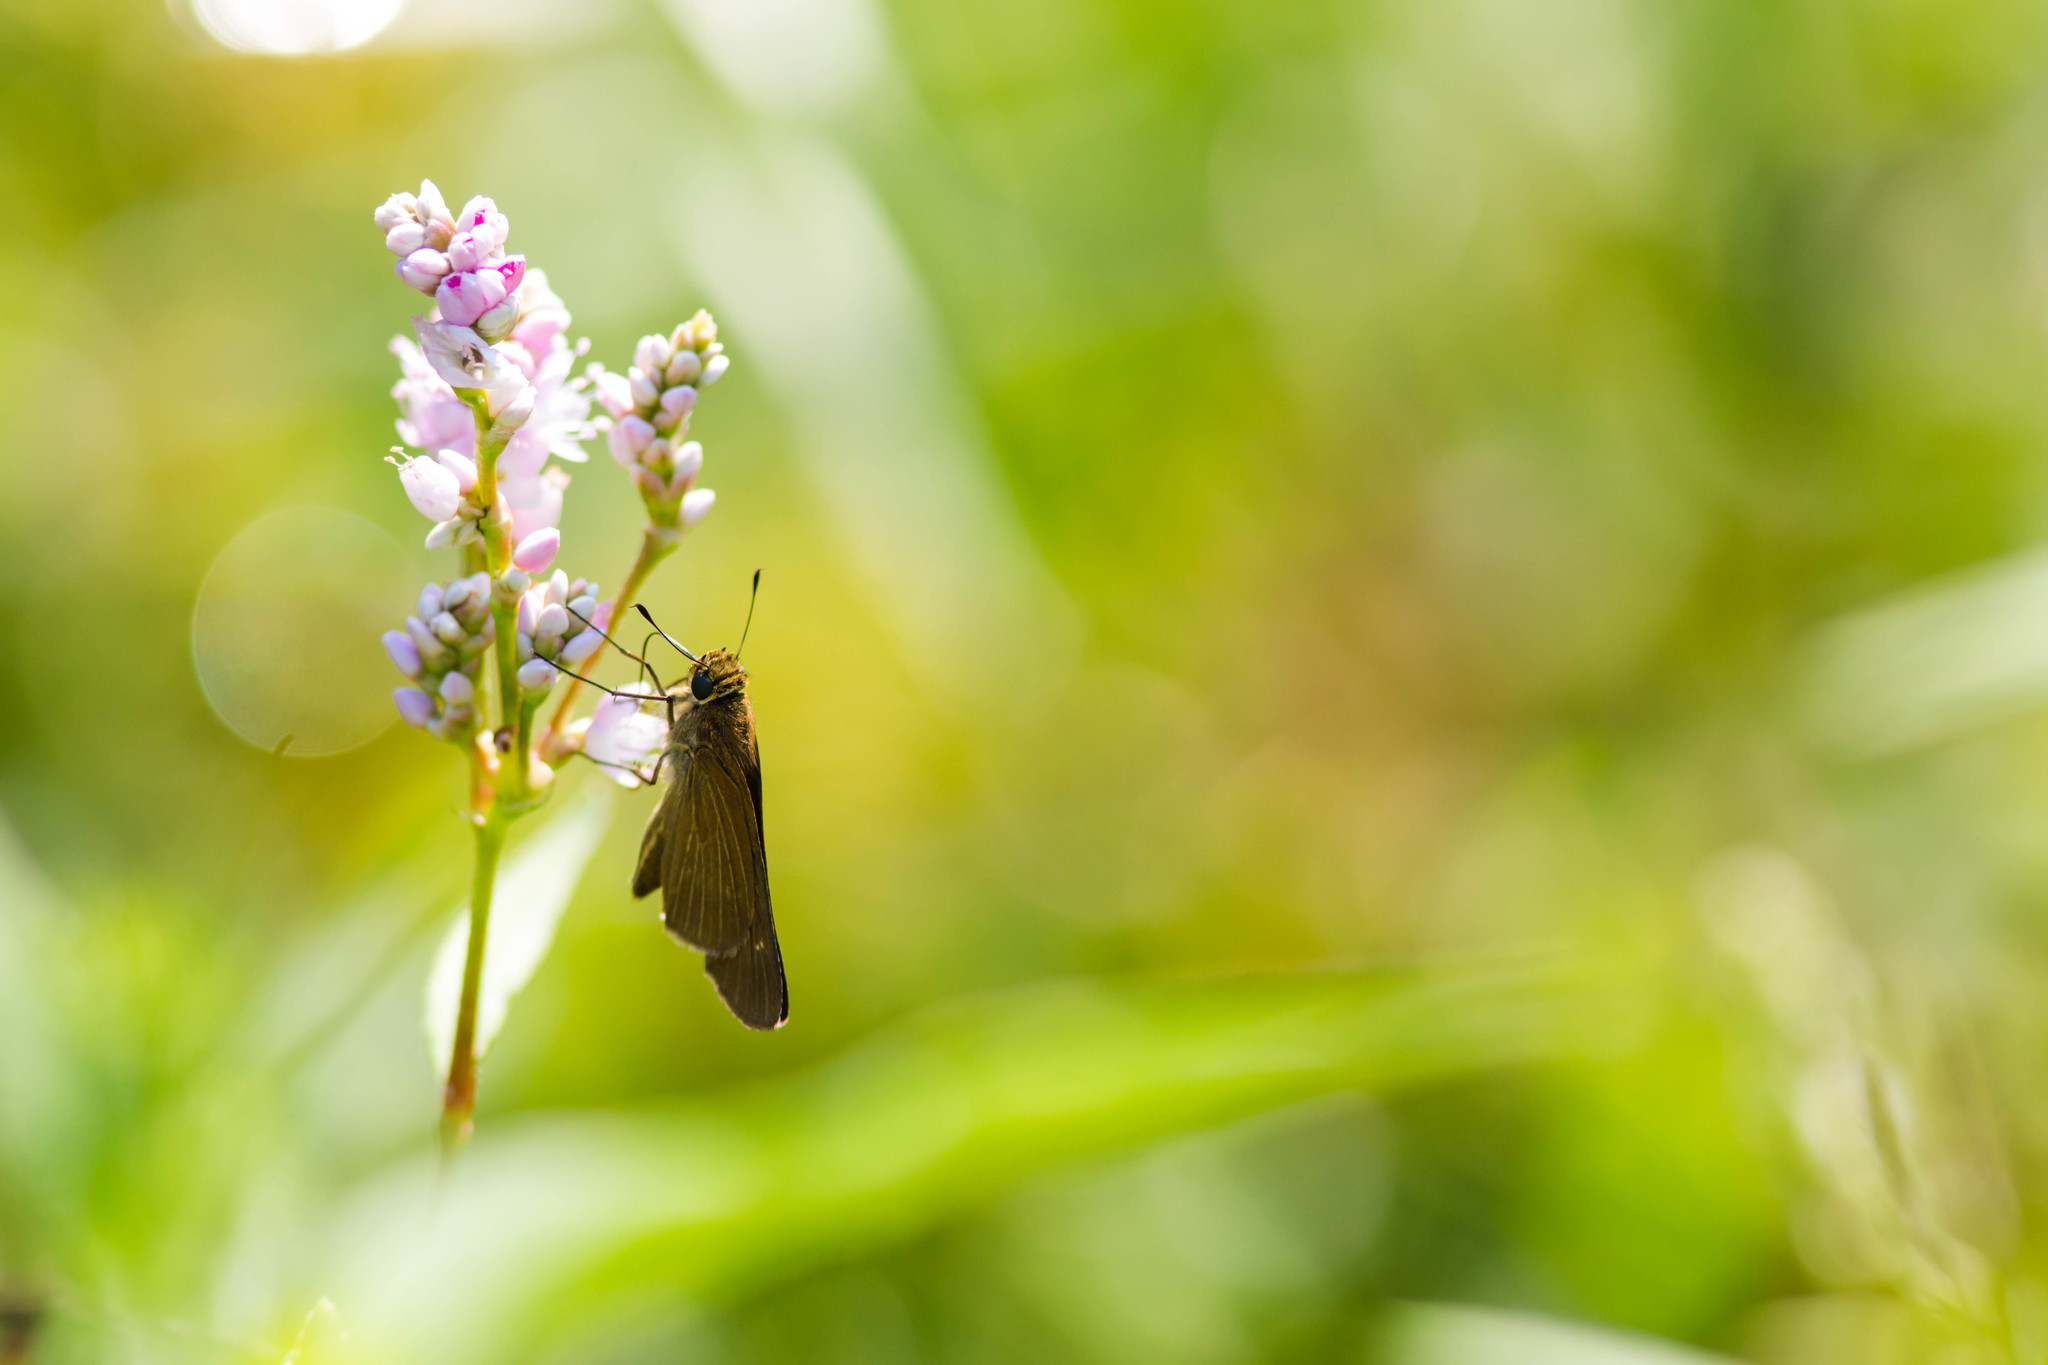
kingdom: Animalia
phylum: Arthropoda
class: Insecta
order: Lepidoptera
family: Hesperiidae
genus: Panoquina
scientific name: Panoquina ocola
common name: Ocola skipper
